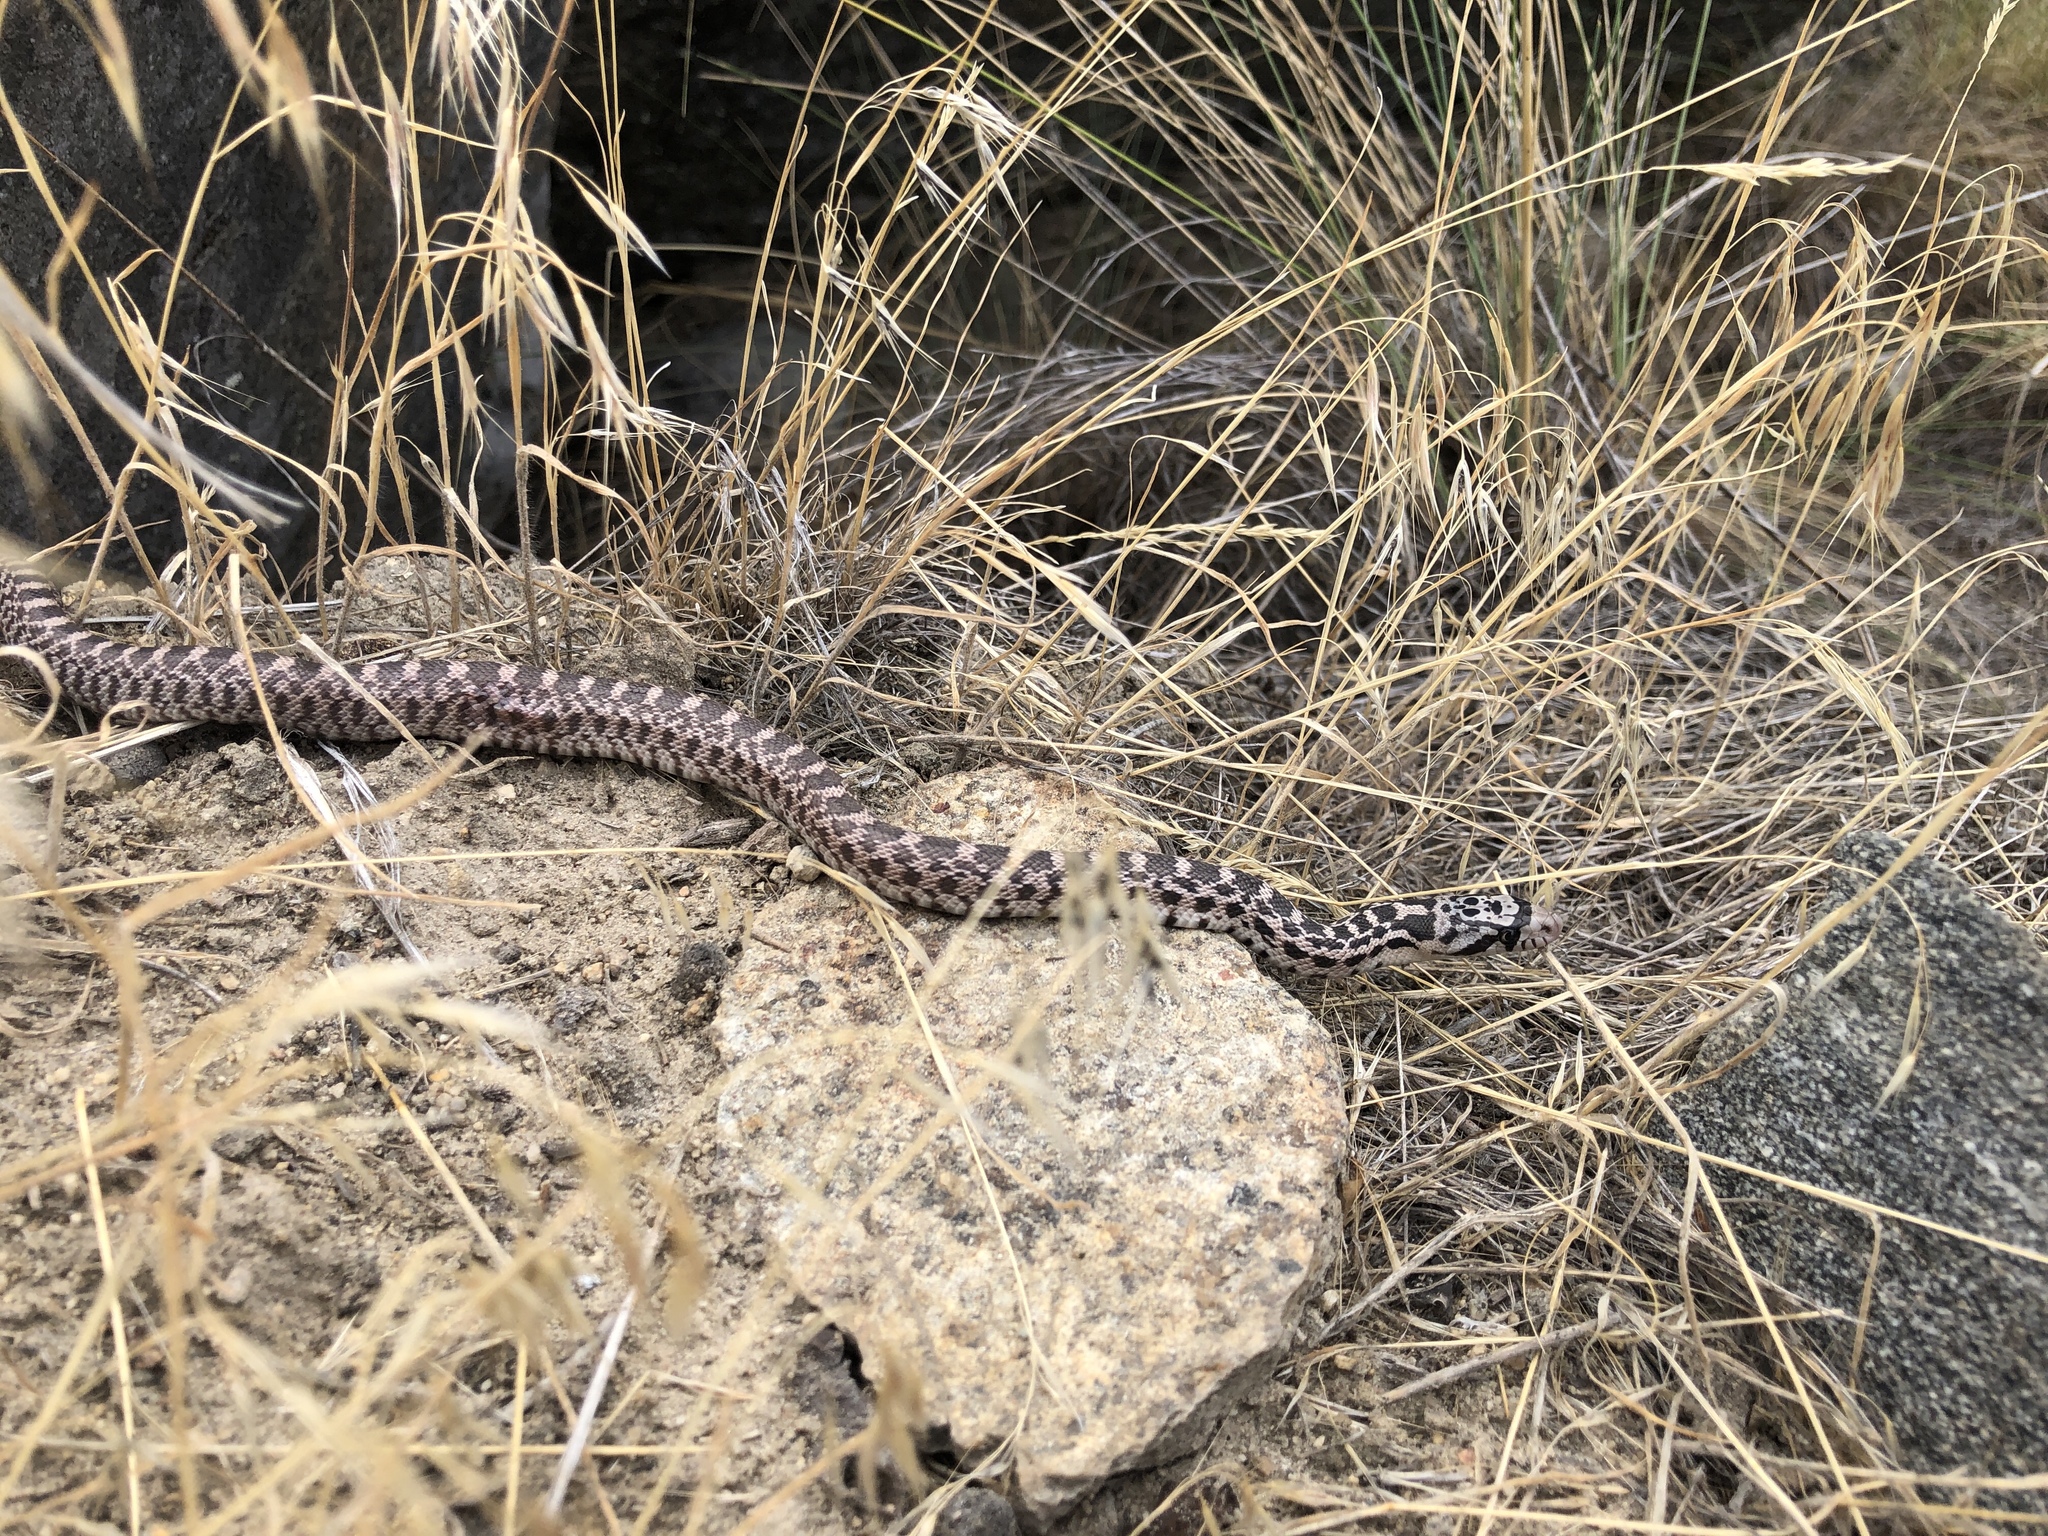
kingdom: Animalia
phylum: Chordata
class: Squamata
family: Colubridae
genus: Pituophis
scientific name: Pituophis catenifer
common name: Gopher snake
